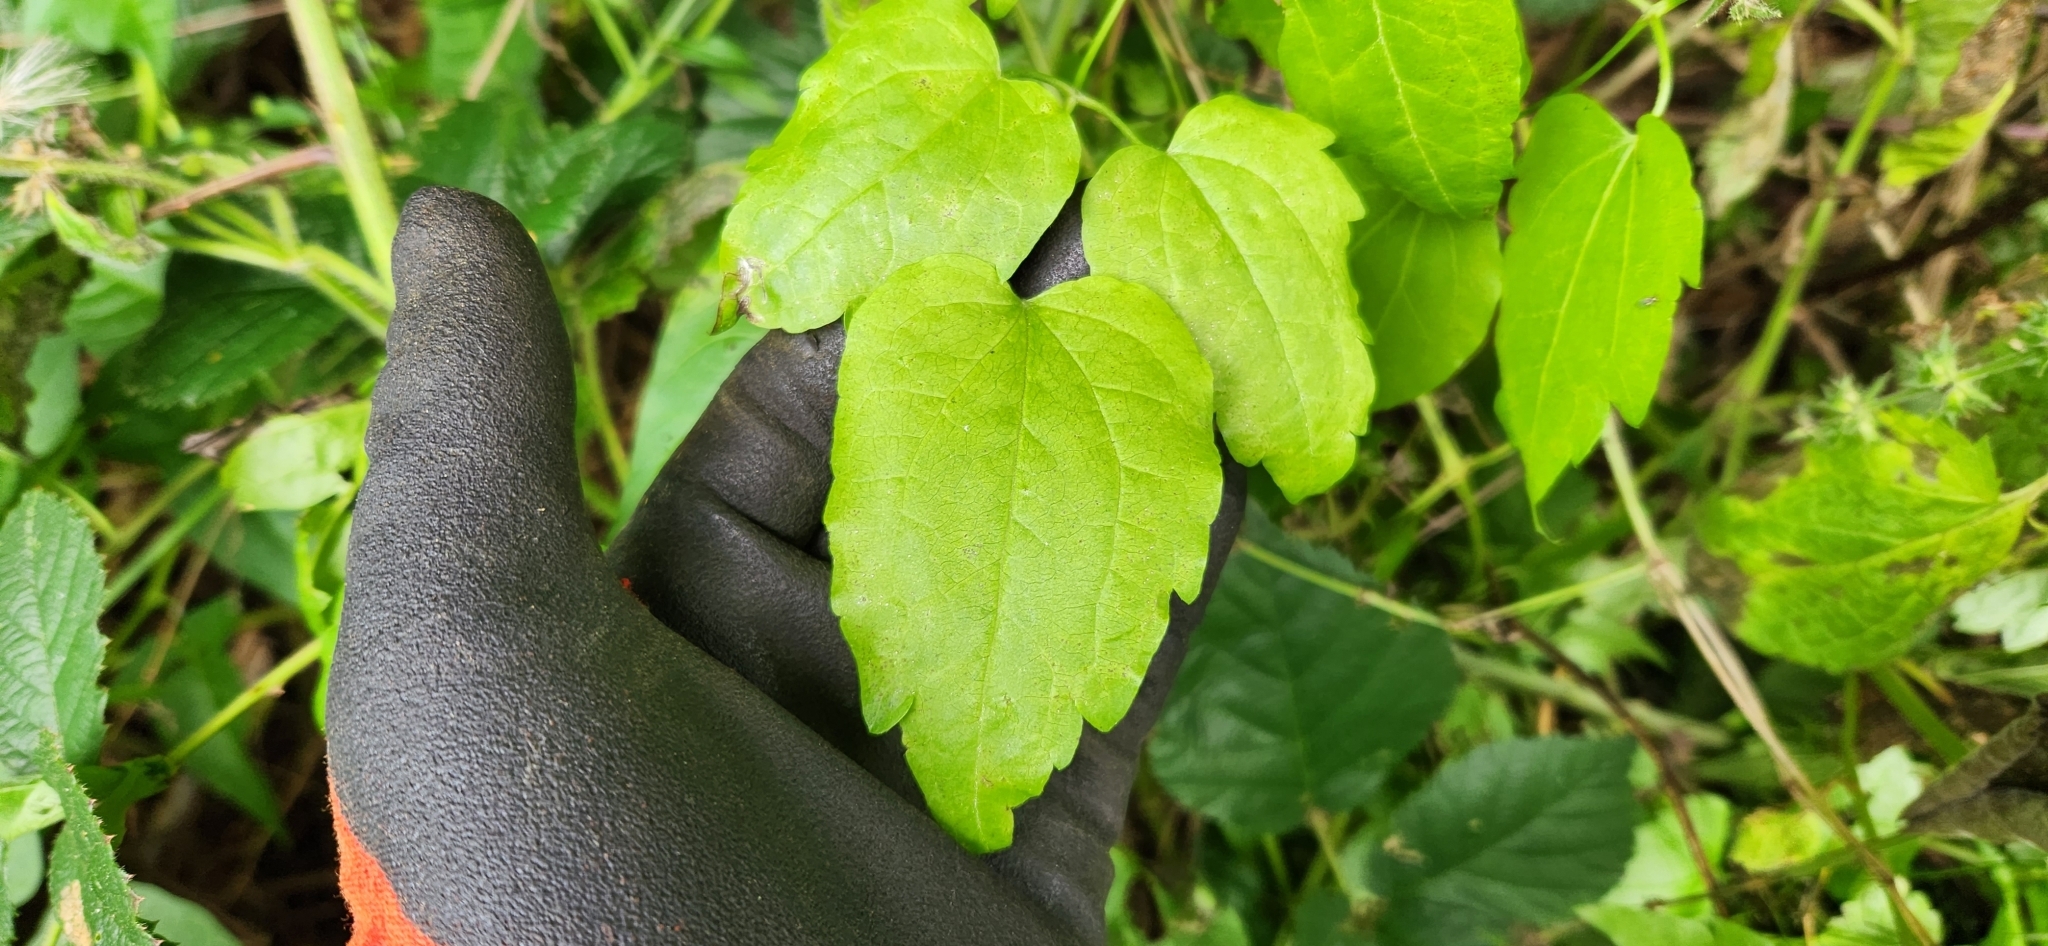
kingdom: Plantae
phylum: Tracheophyta
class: Magnoliopsida
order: Ranunculales
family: Ranunculaceae
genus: Clematis
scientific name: Clematis vitalba
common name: Evergreen clematis
